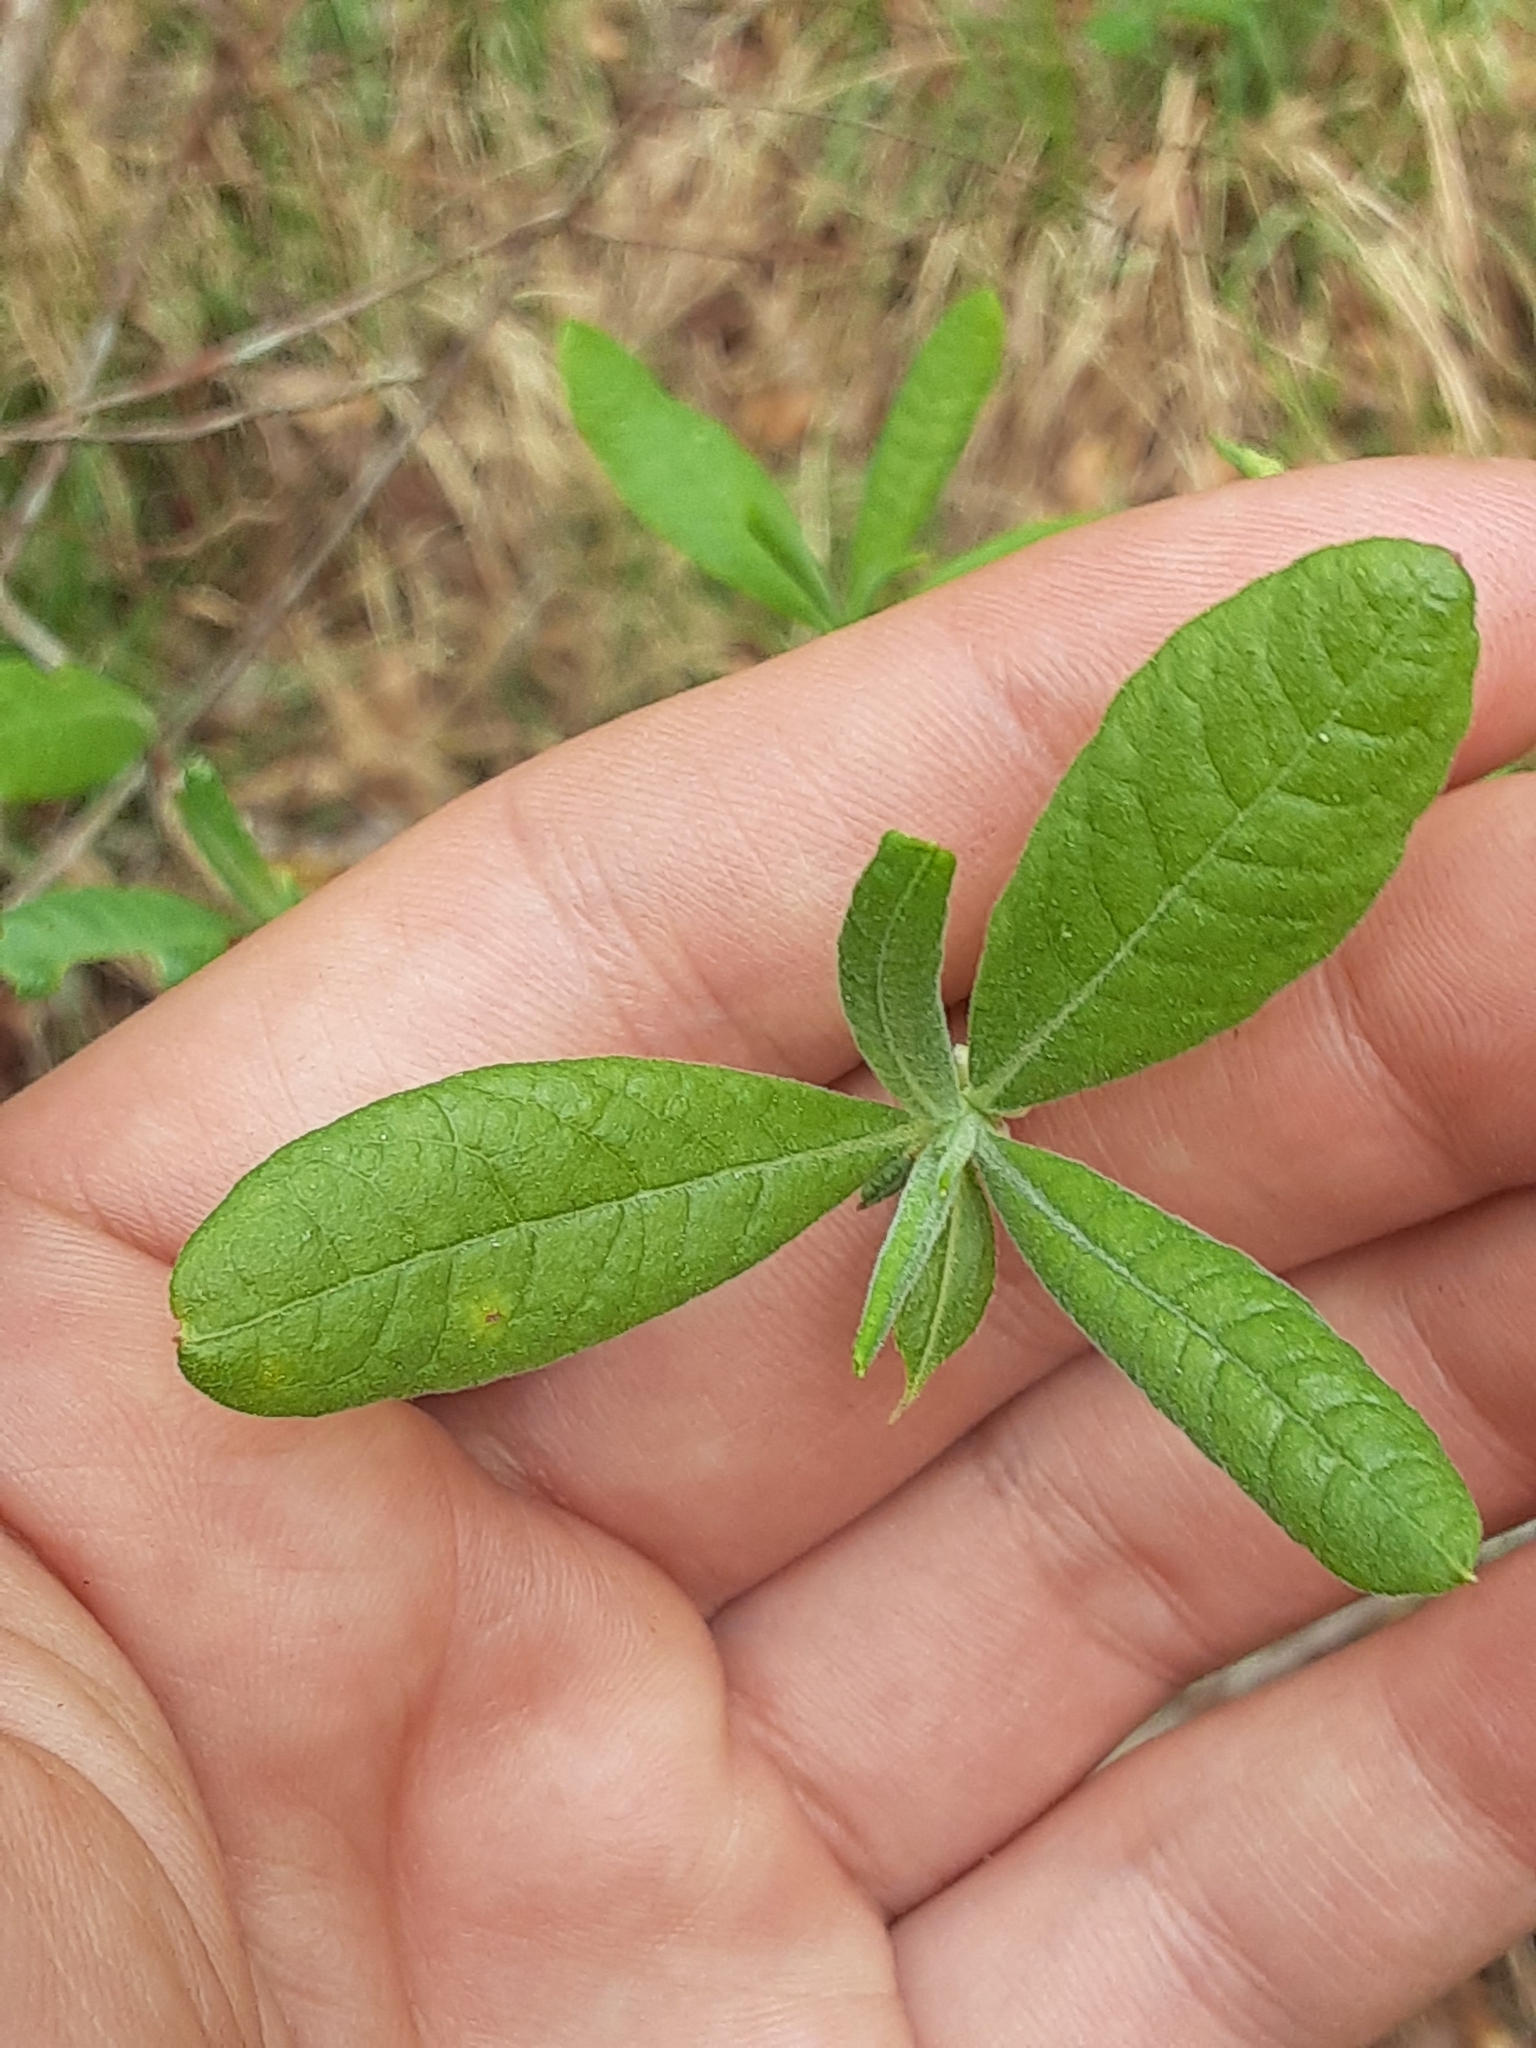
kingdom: Plantae
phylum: Tracheophyta
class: Magnoliopsida
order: Ericales
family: Ericaceae
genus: Rhododendron
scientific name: Rhododendron canescens
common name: Mountain azalea
